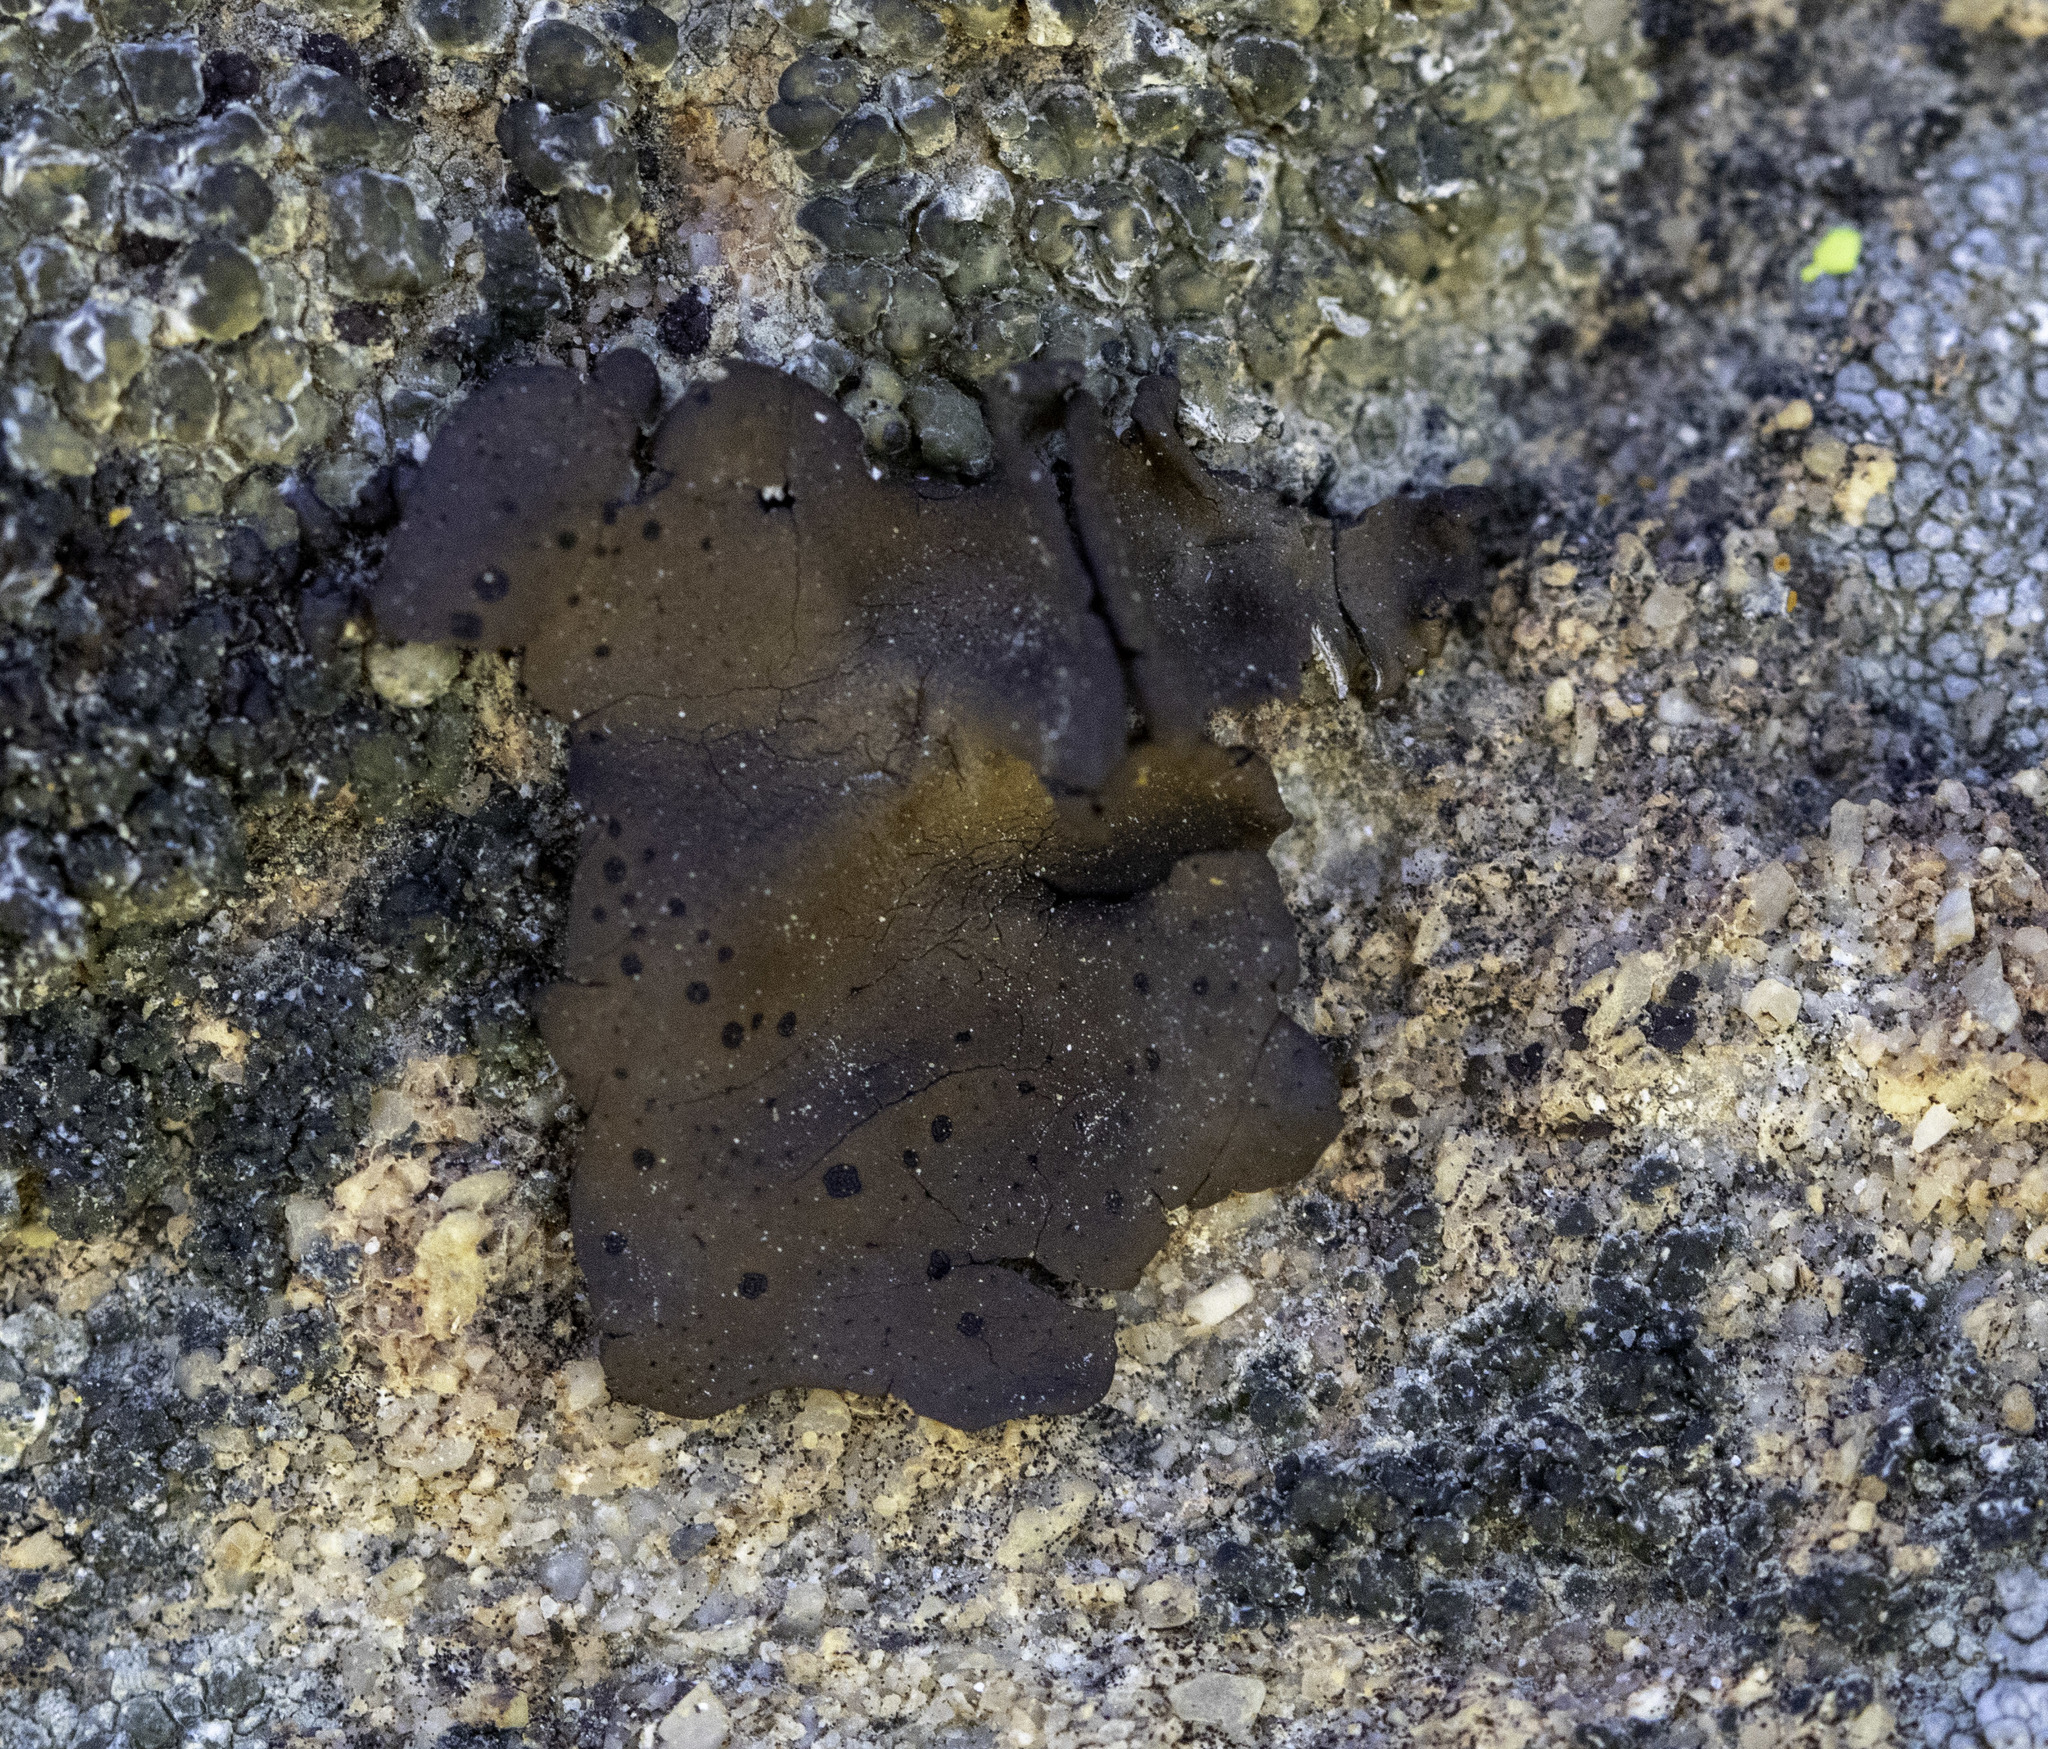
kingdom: Fungi
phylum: Ascomycota
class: Lecanoromycetes
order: Umbilicariales
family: Umbilicariaceae
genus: Umbilicaria
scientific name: Umbilicaria phaea
